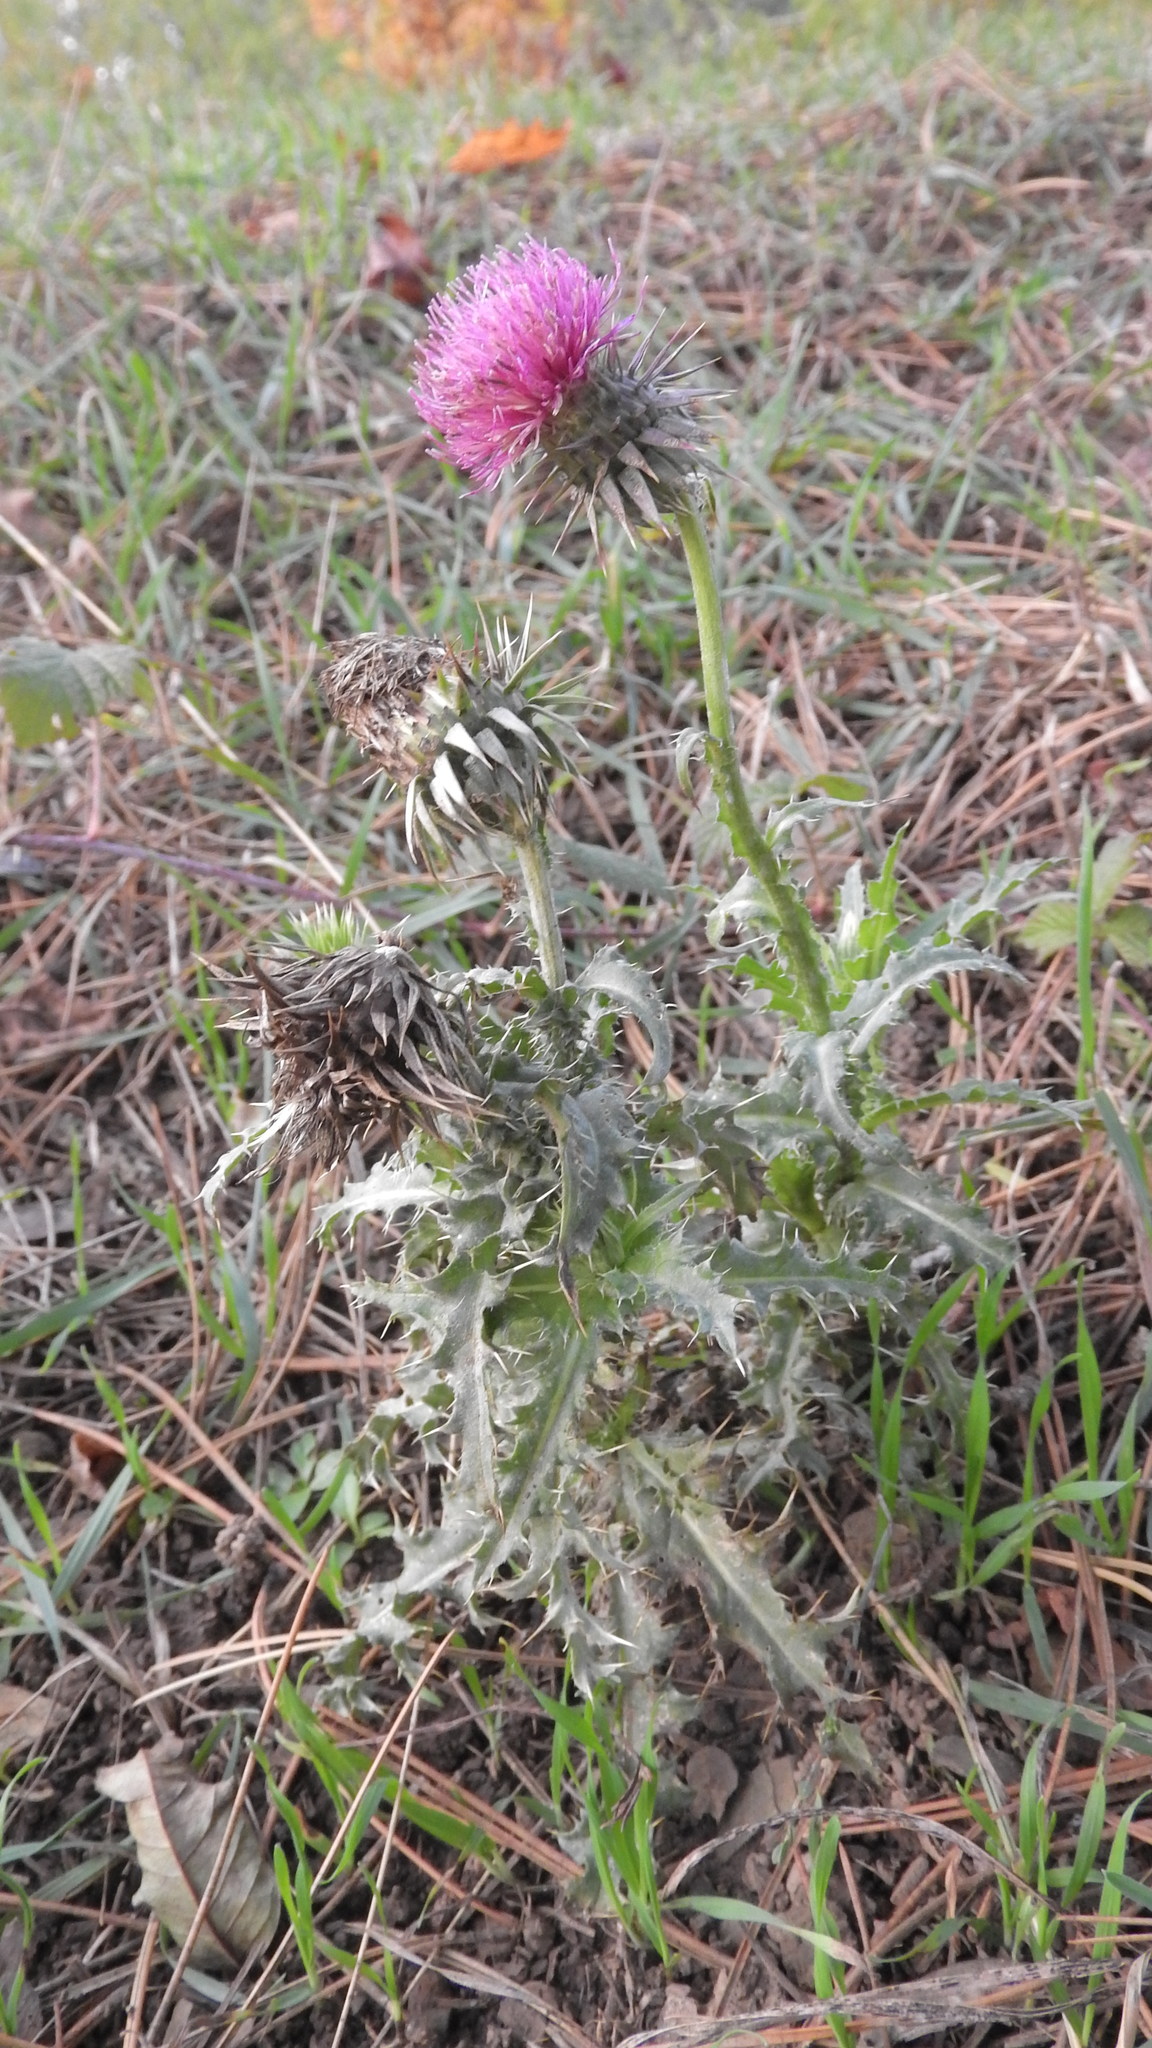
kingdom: Plantae
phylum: Tracheophyta
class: Magnoliopsida
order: Asterales
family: Asteraceae
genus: Carduus
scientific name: Carduus nutans
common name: Musk thistle
